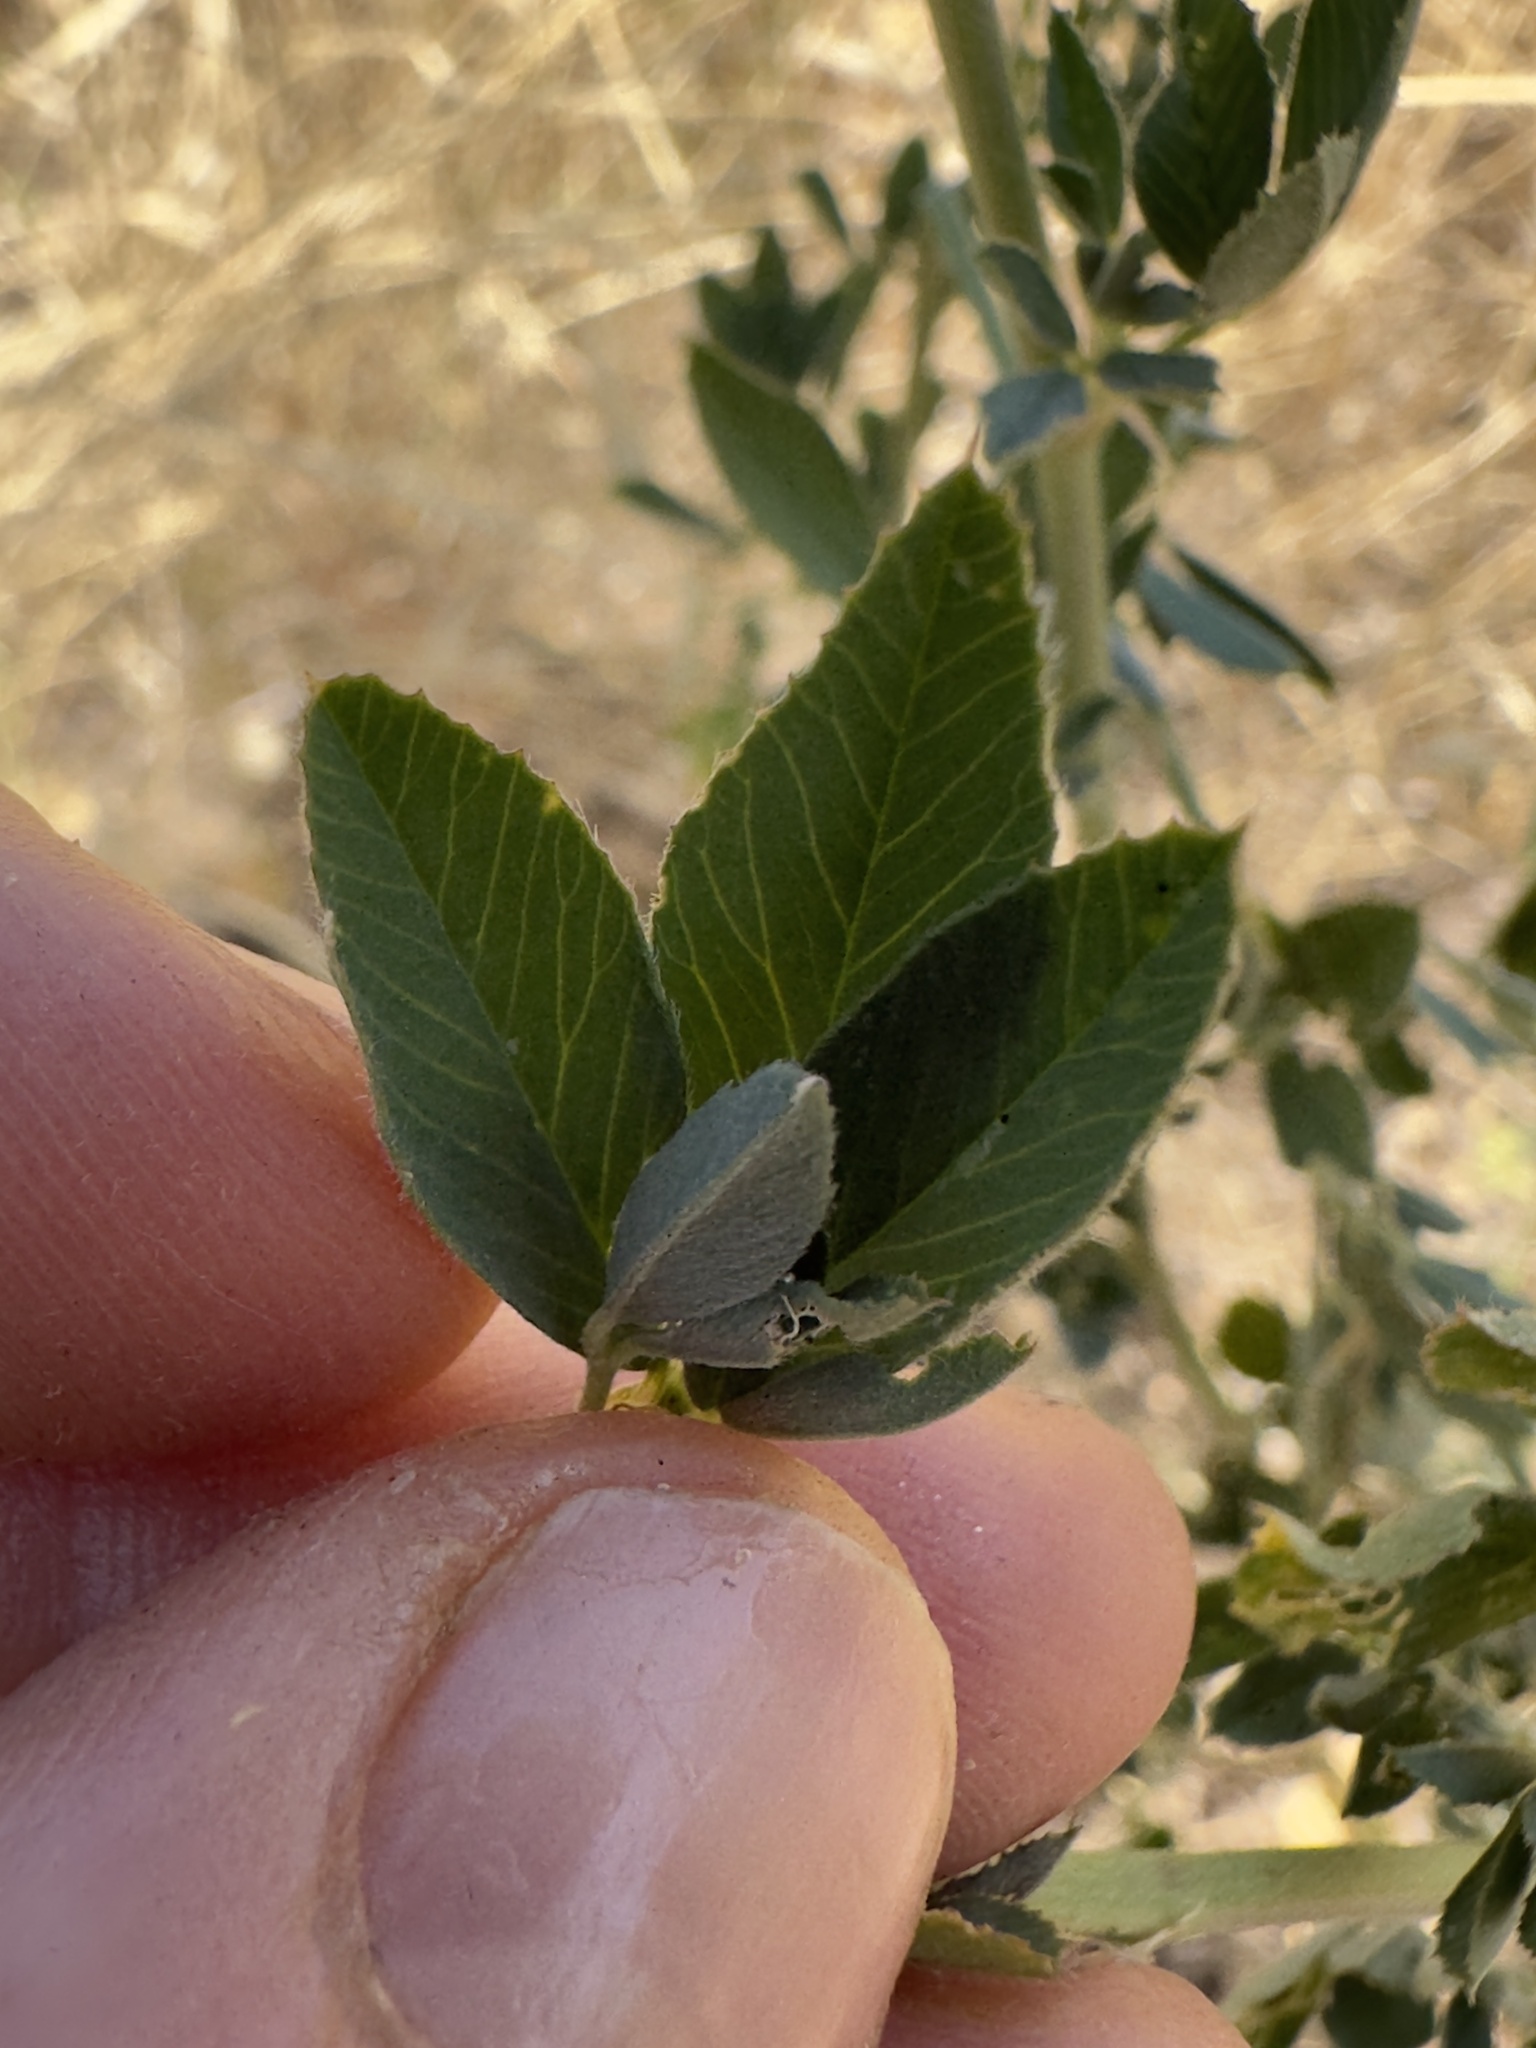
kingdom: Plantae
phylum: Tracheophyta
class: Magnoliopsida
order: Fabales
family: Fabaceae
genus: Medicago
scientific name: Medicago sativa
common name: Alfalfa
